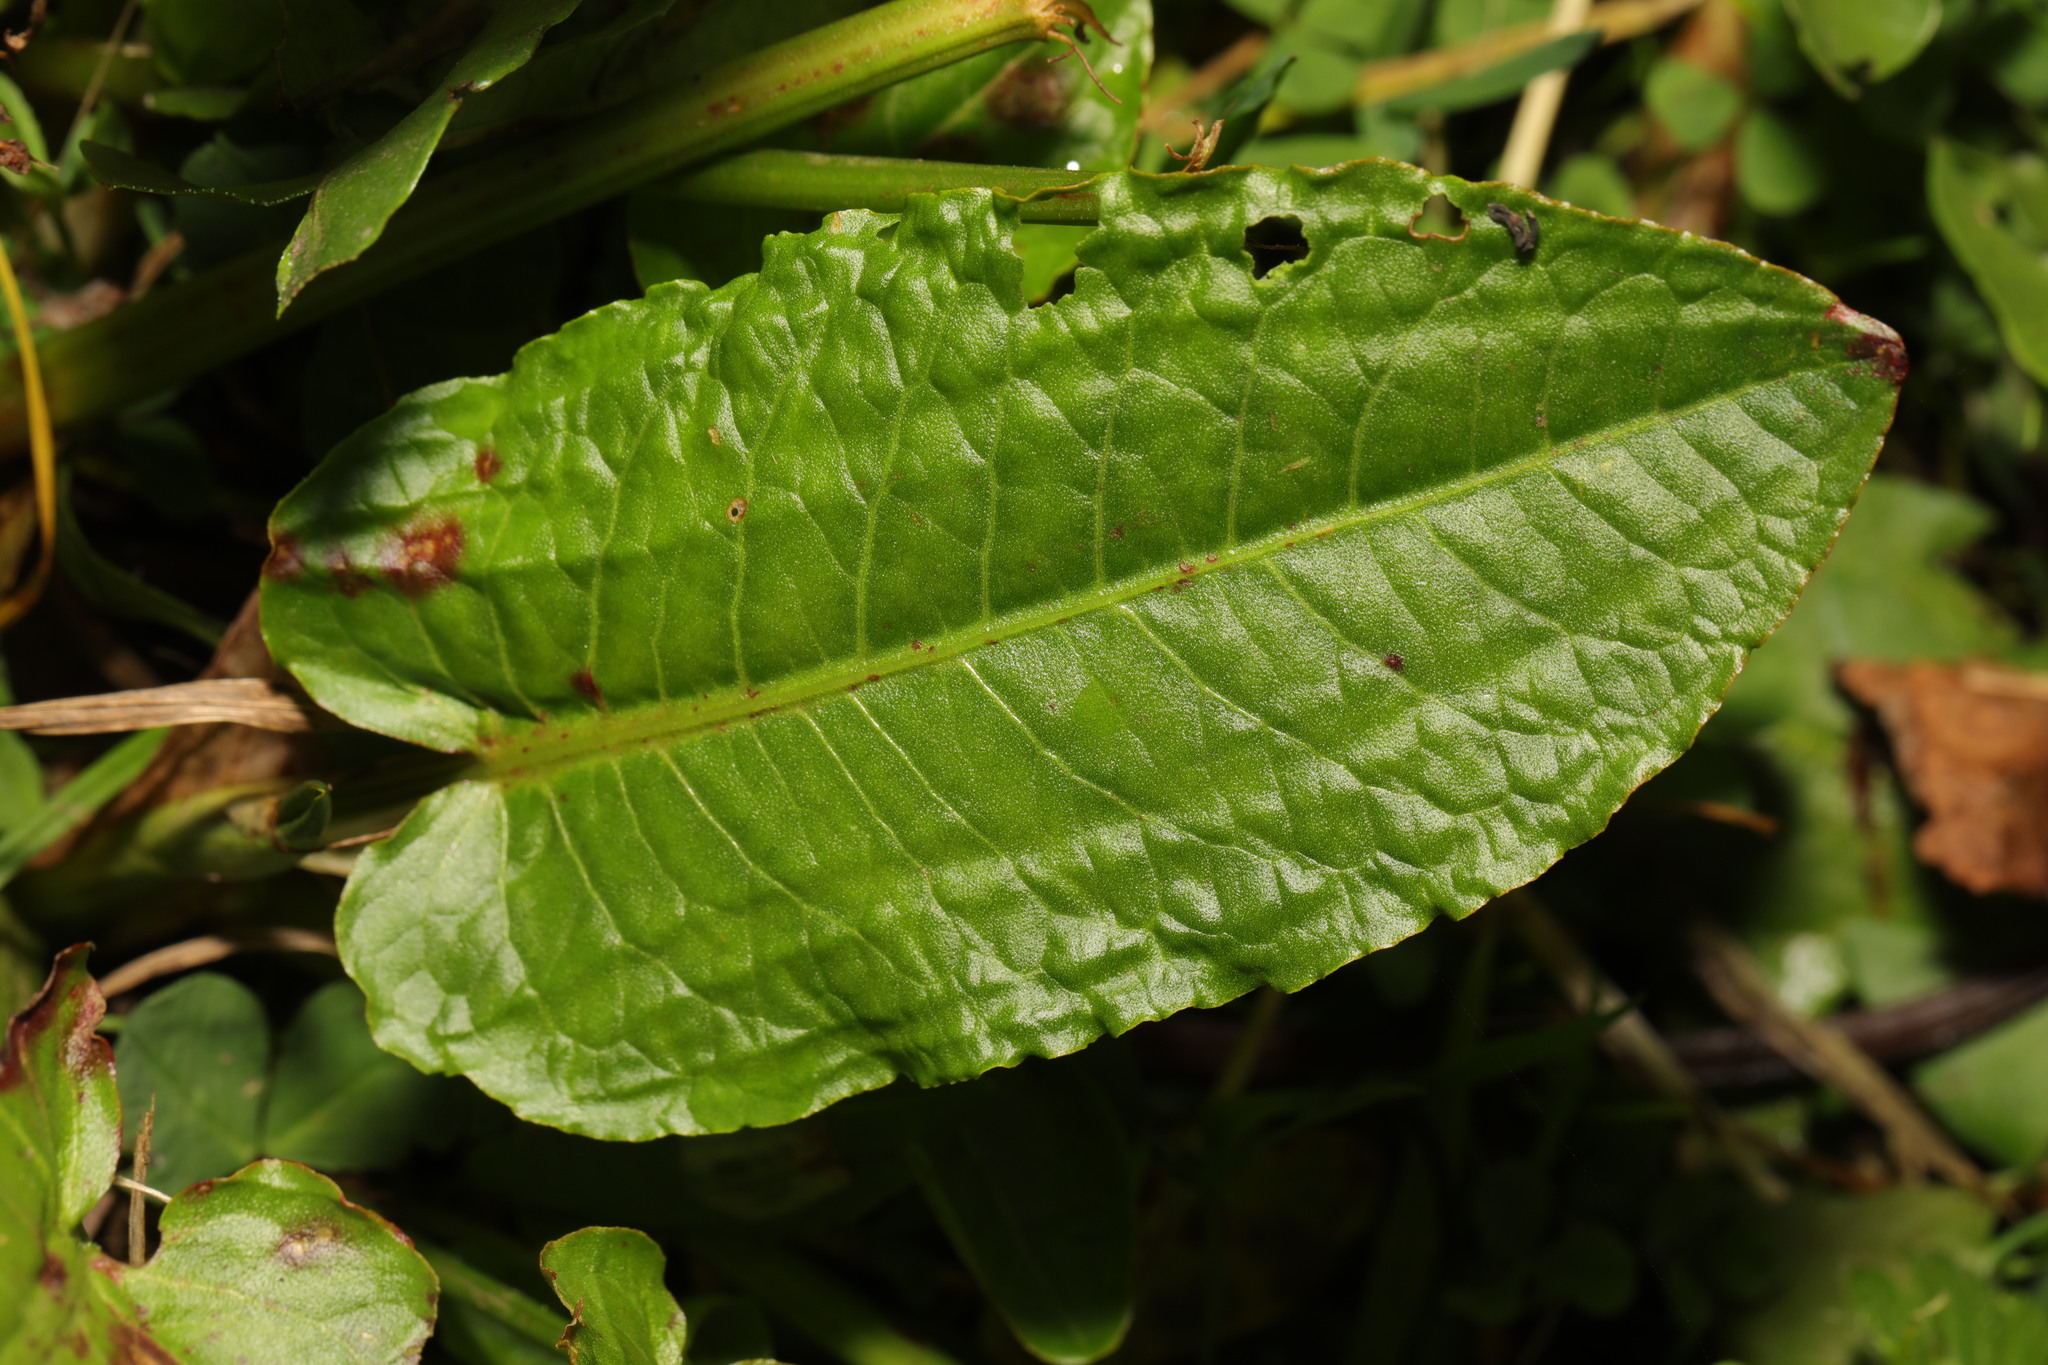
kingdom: Plantae
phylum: Tracheophyta
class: Magnoliopsida
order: Caryophyllales
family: Polygonaceae
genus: Rumex
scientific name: Rumex obtusifolius
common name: Bitter dock
